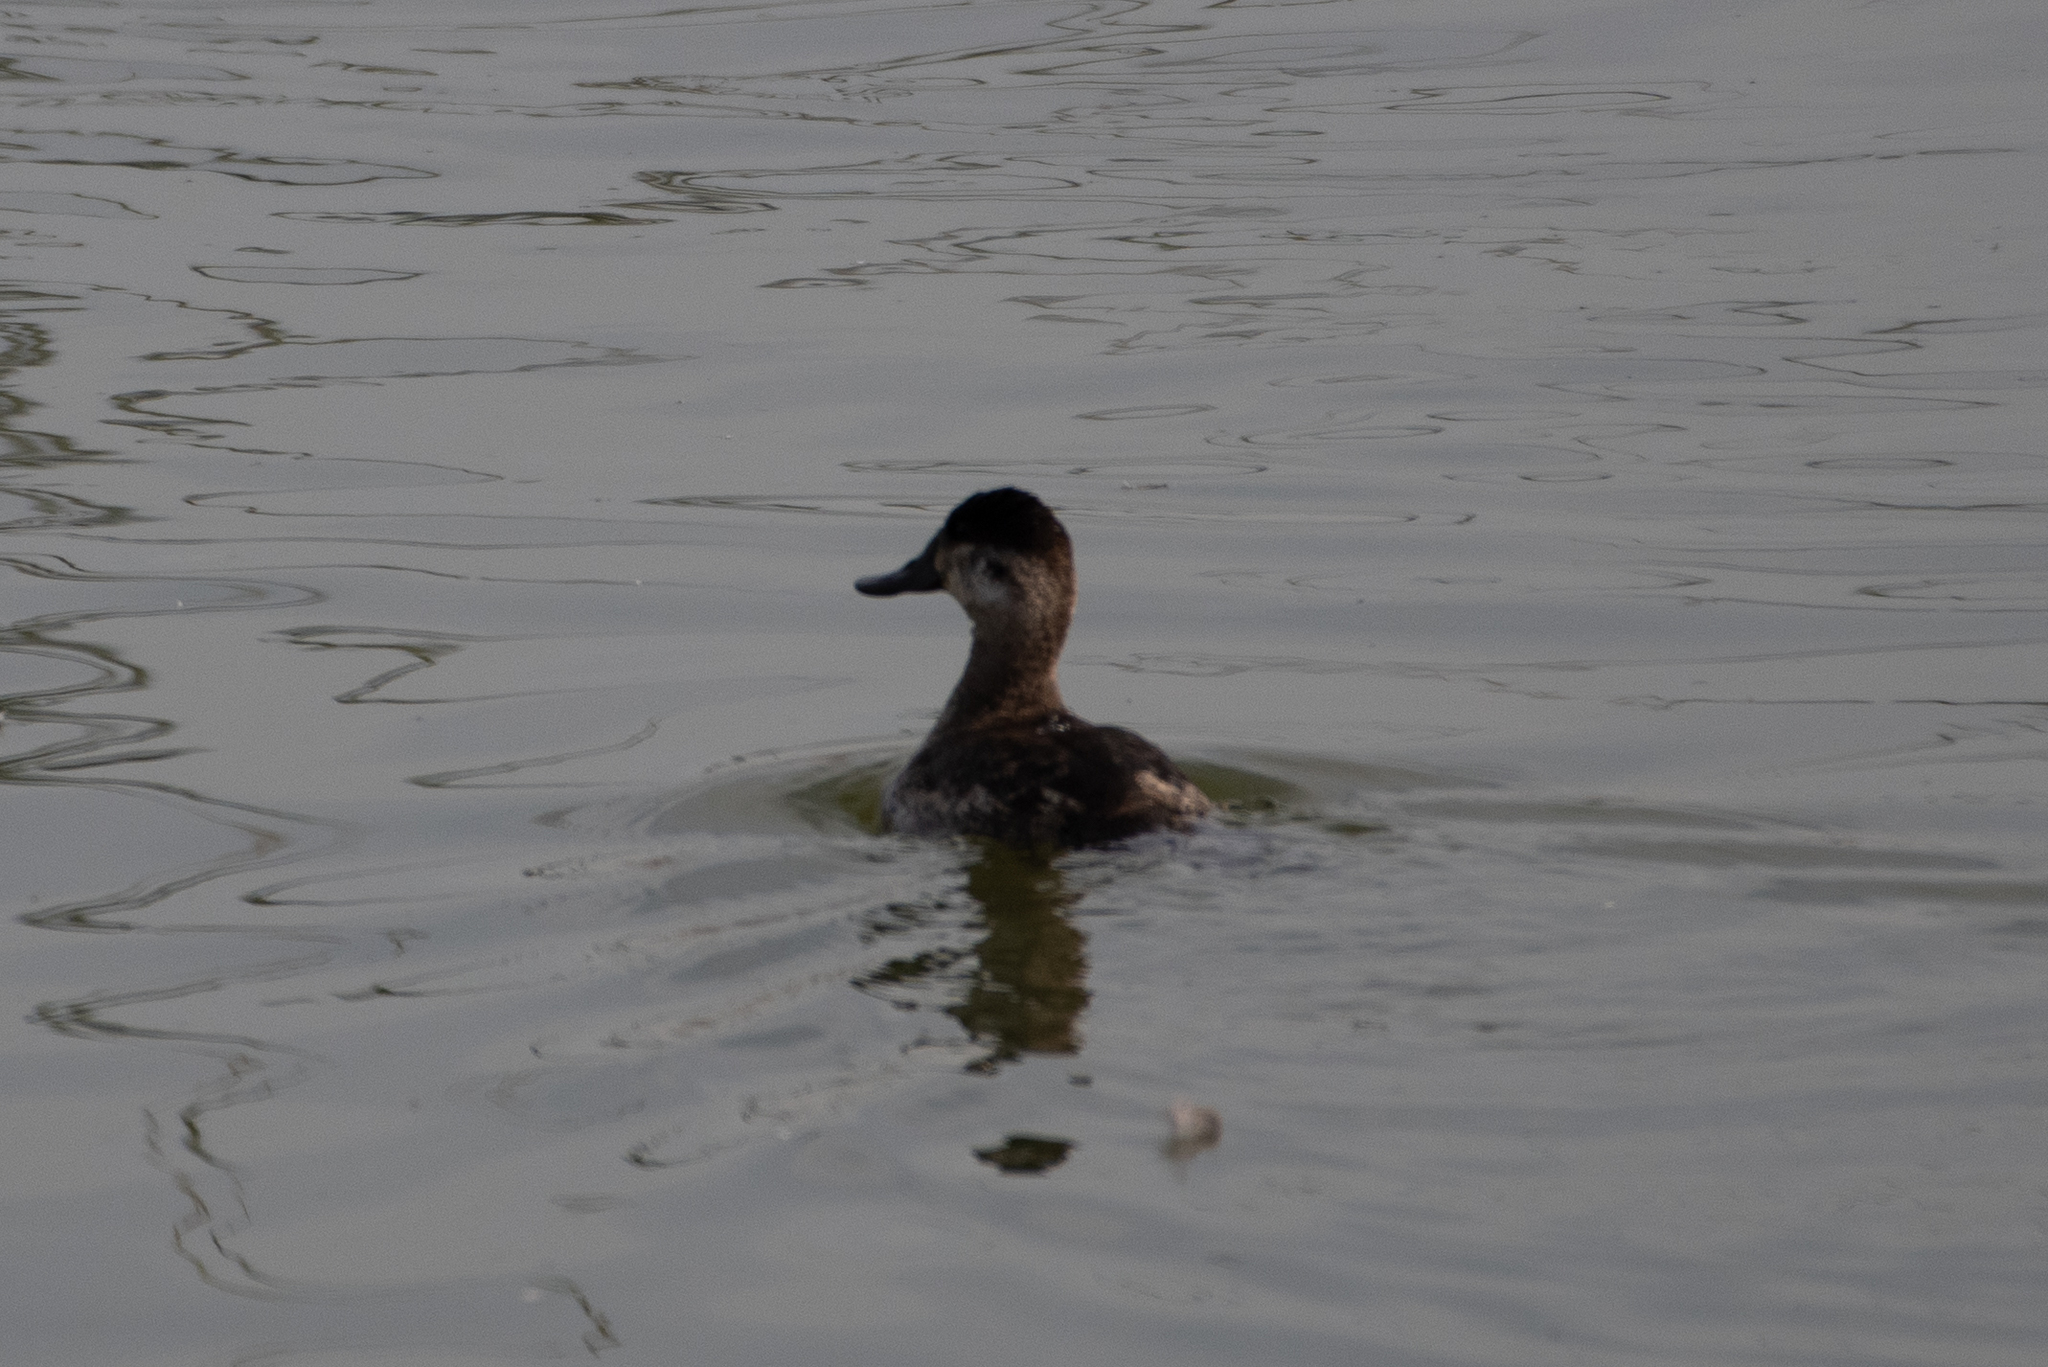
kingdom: Animalia
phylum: Chordata
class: Aves
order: Anseriformes
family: Anatidae
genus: Oxyura
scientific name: Oxyura jamaicensis
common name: Ruddy duck
